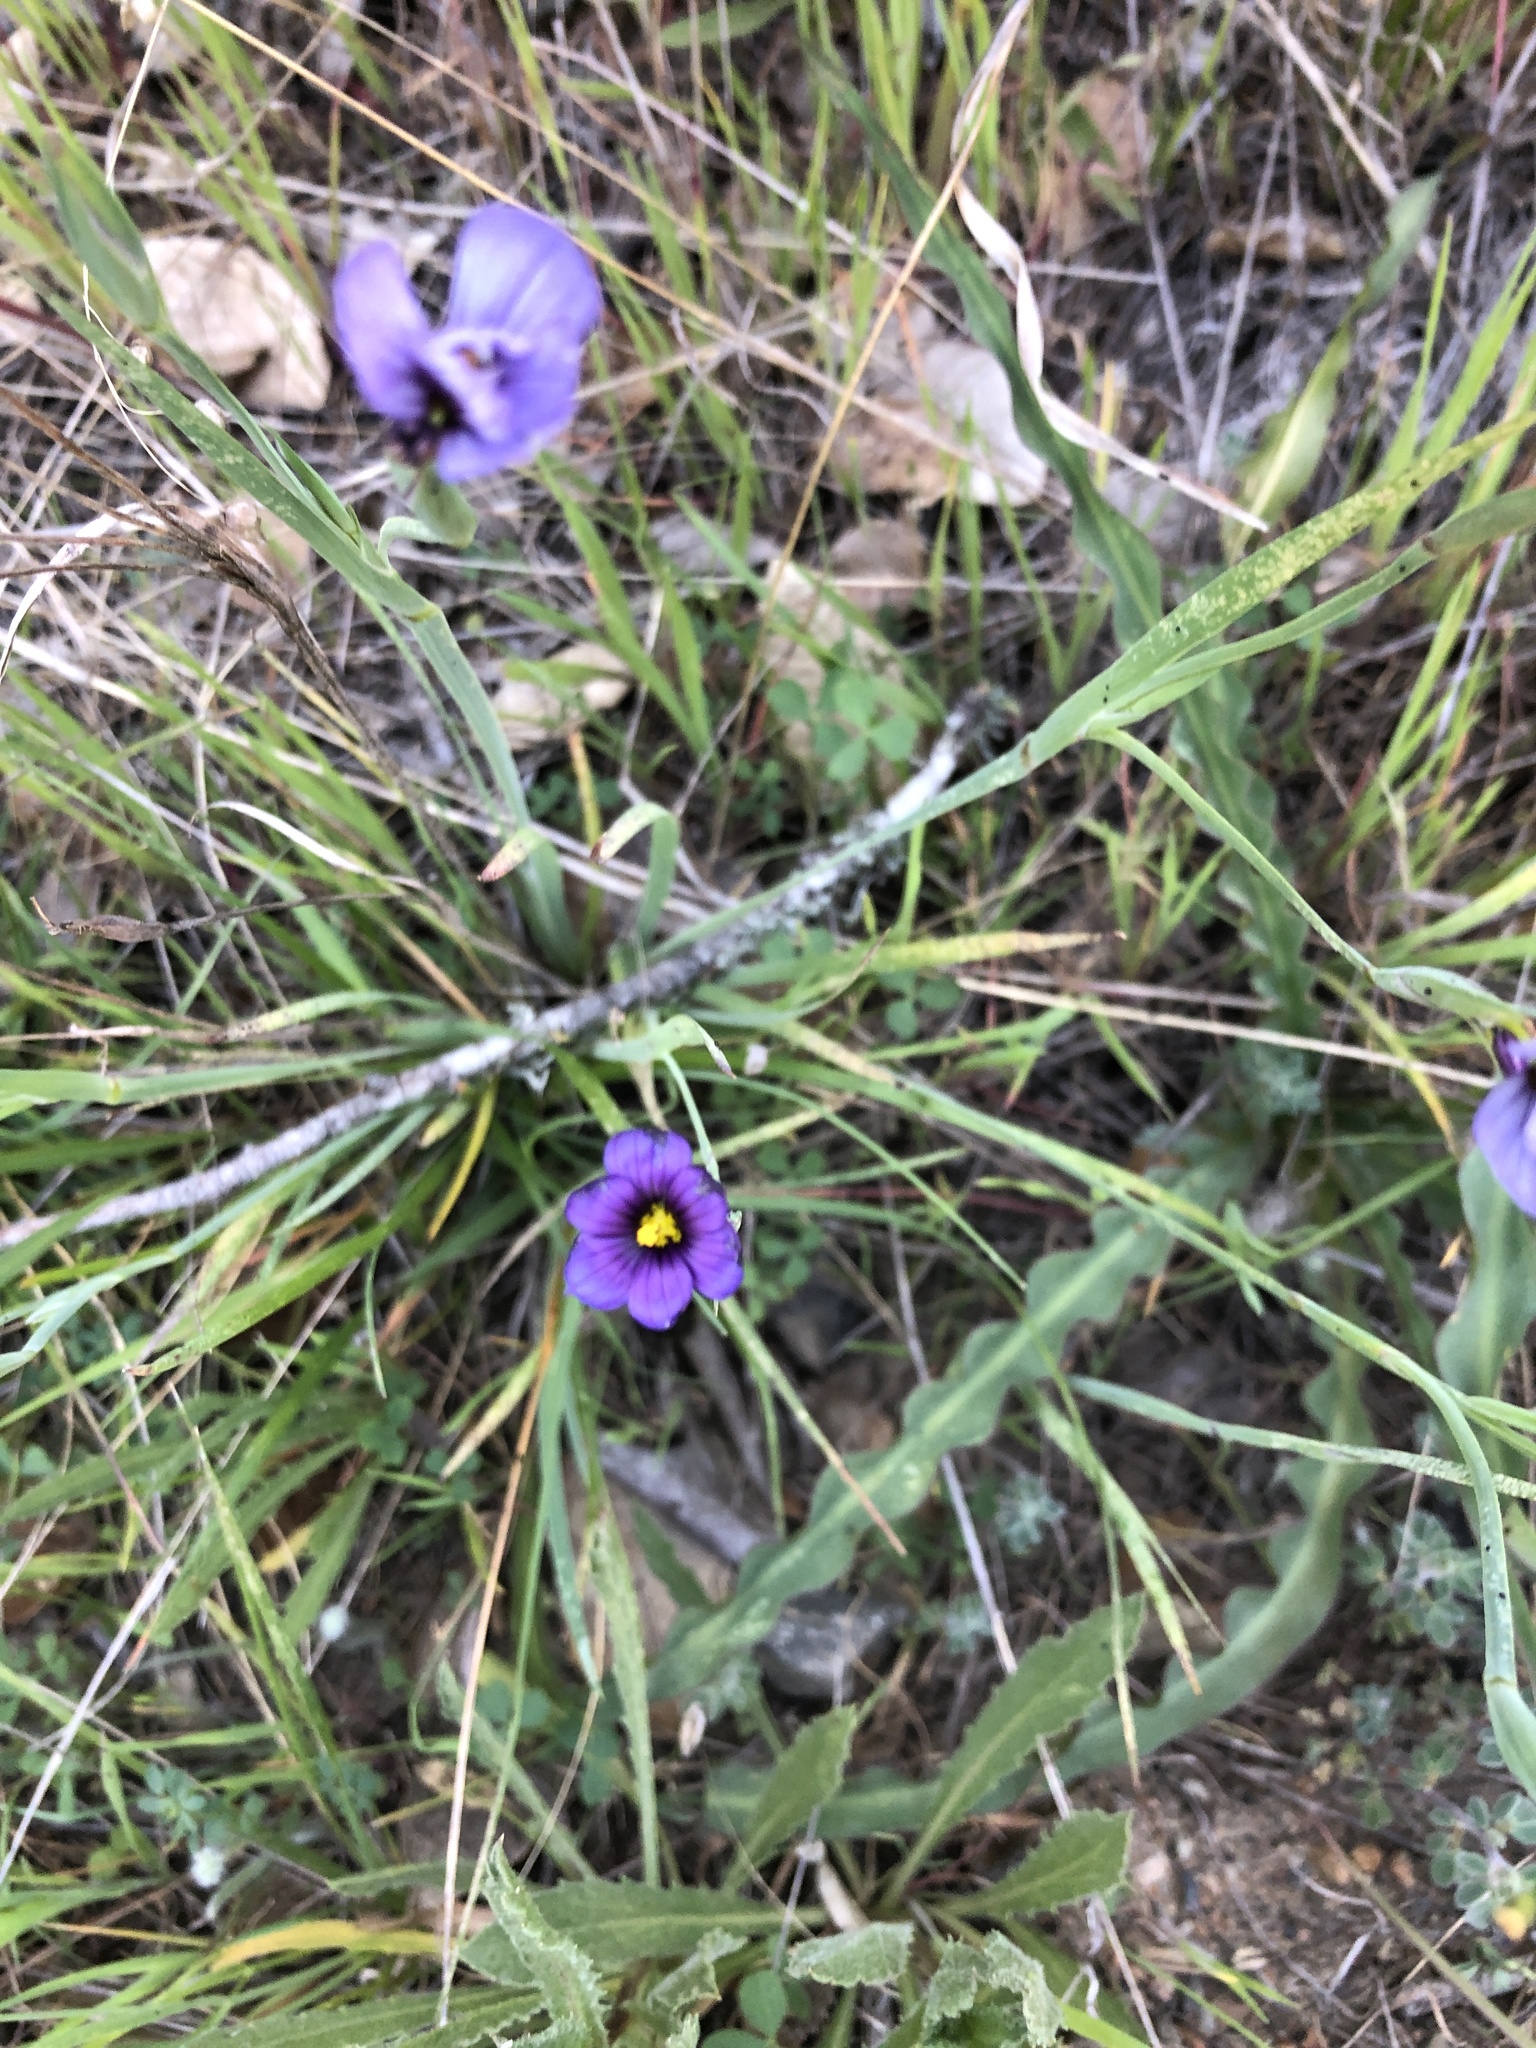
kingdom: Plantae
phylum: Tracheophyta
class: Liliopsida
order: Asparagales
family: Iridaceae
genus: Sisyrinchium
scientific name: Sisyrinchium bellum
